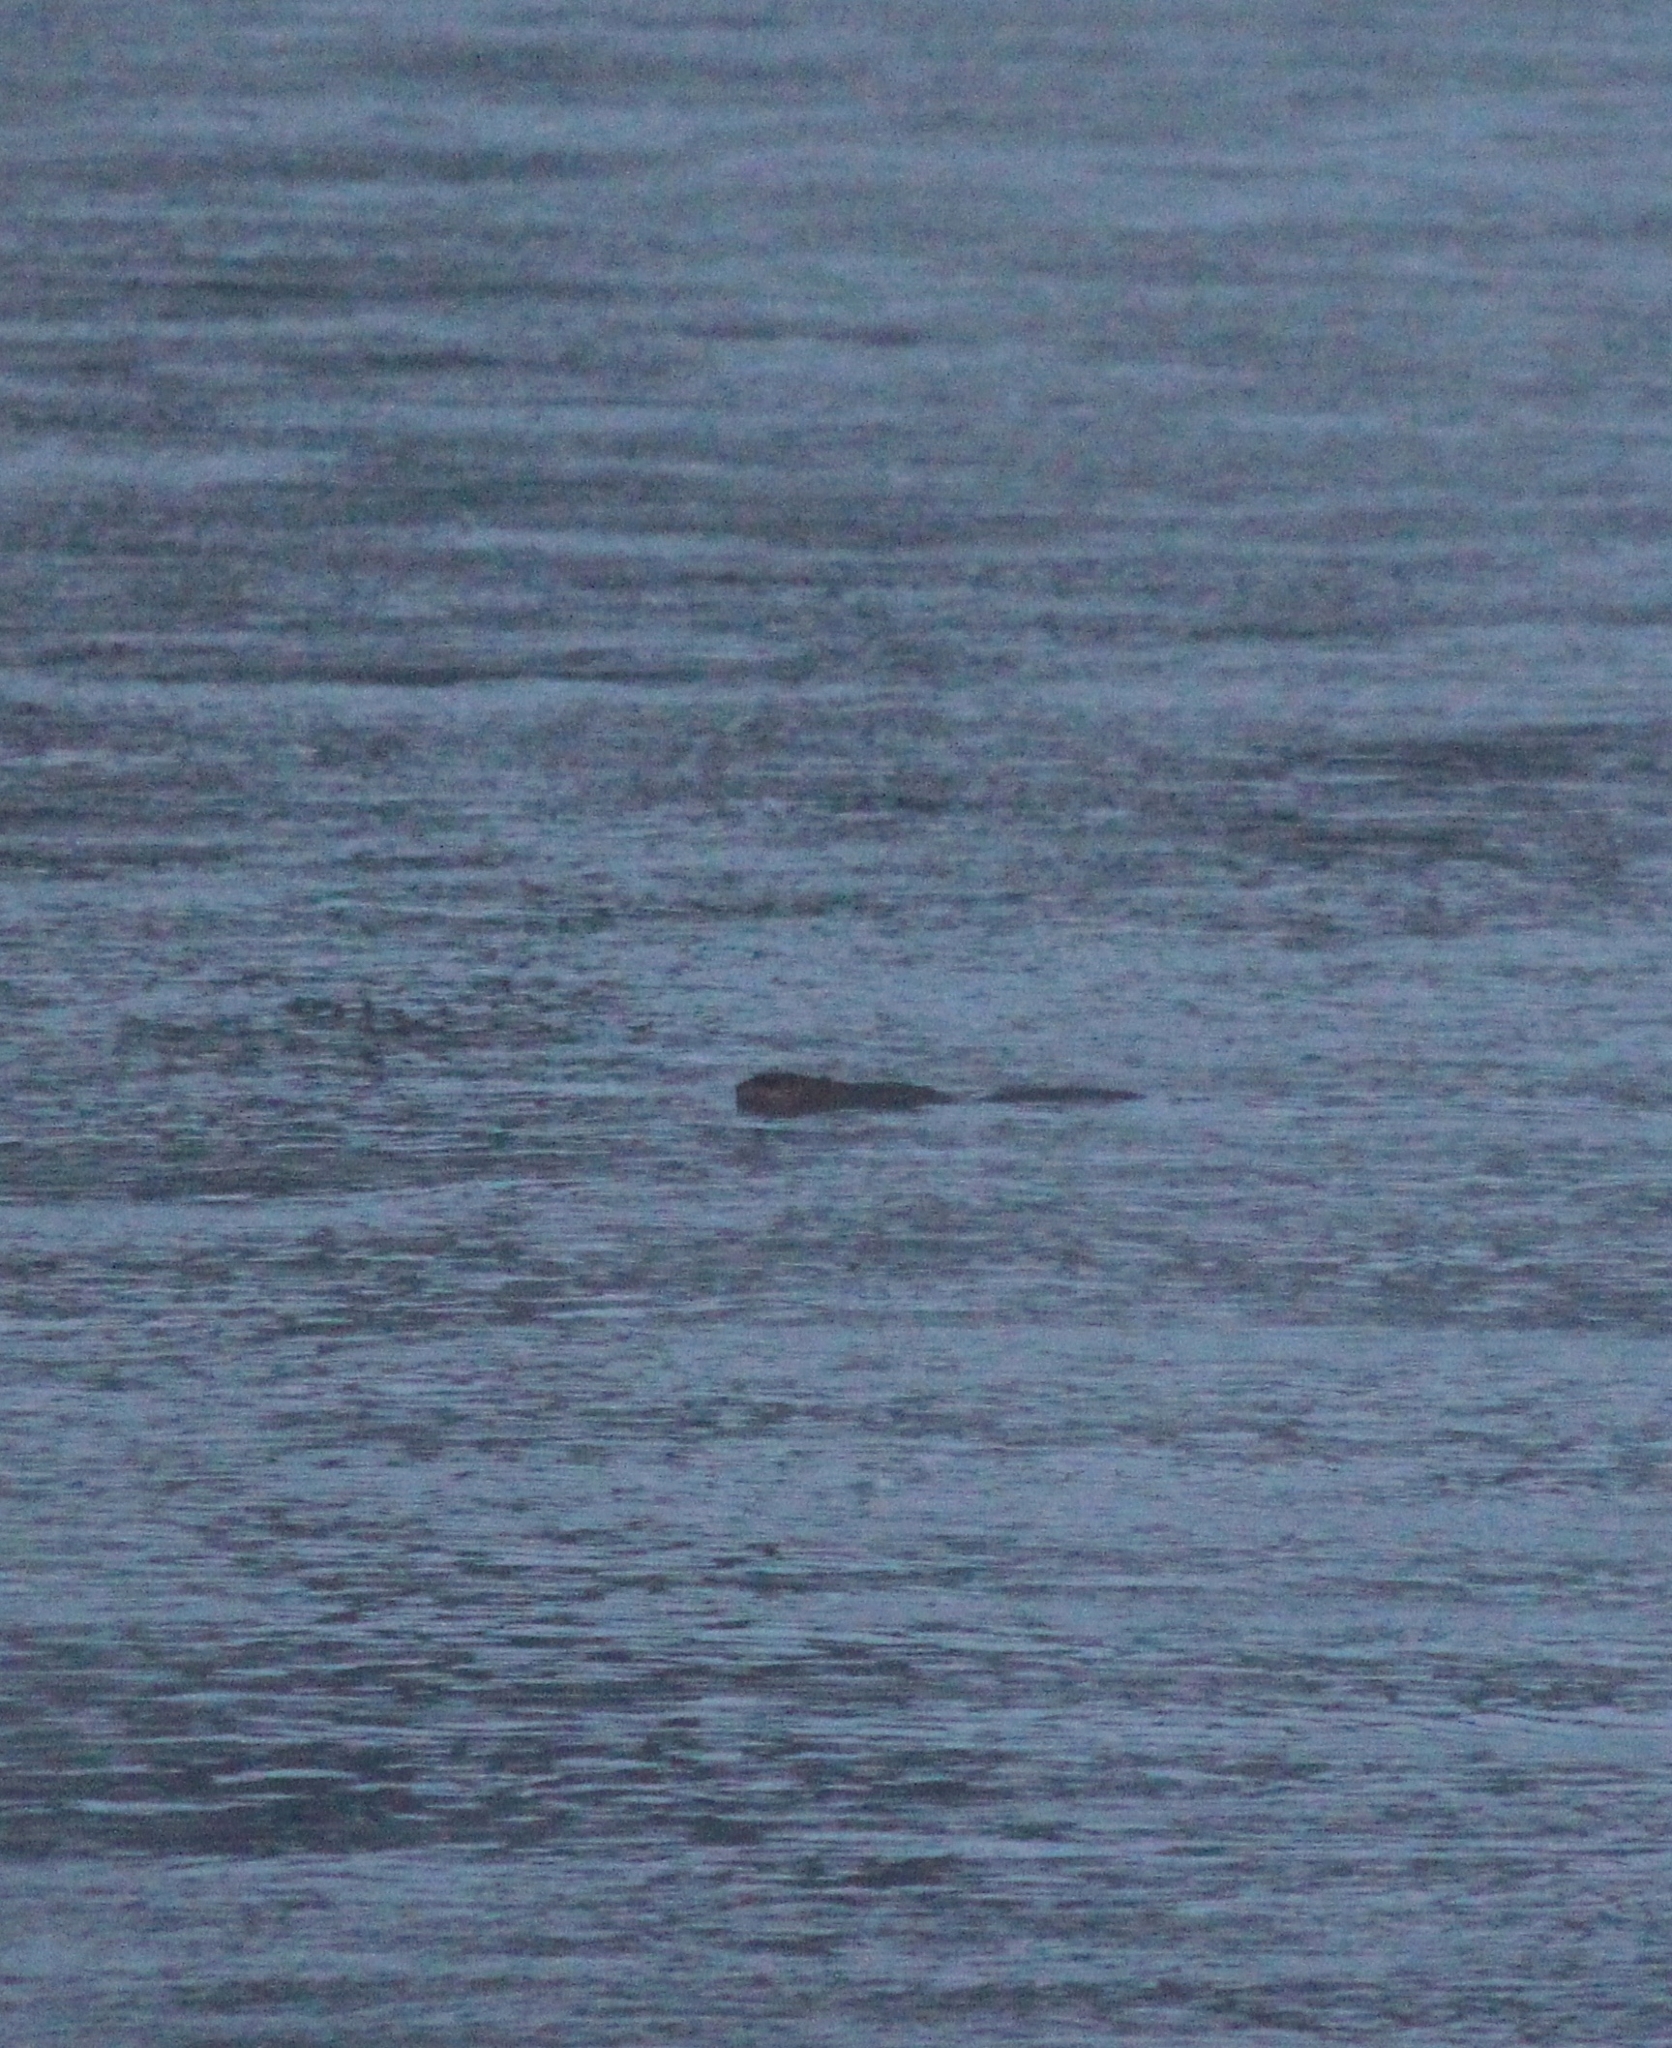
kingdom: Animalia
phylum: Chordata
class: Mammalia
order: Rodentia
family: Cricetidae
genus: Ondatra
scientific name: Ondatra zibethicus
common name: Muskrat
